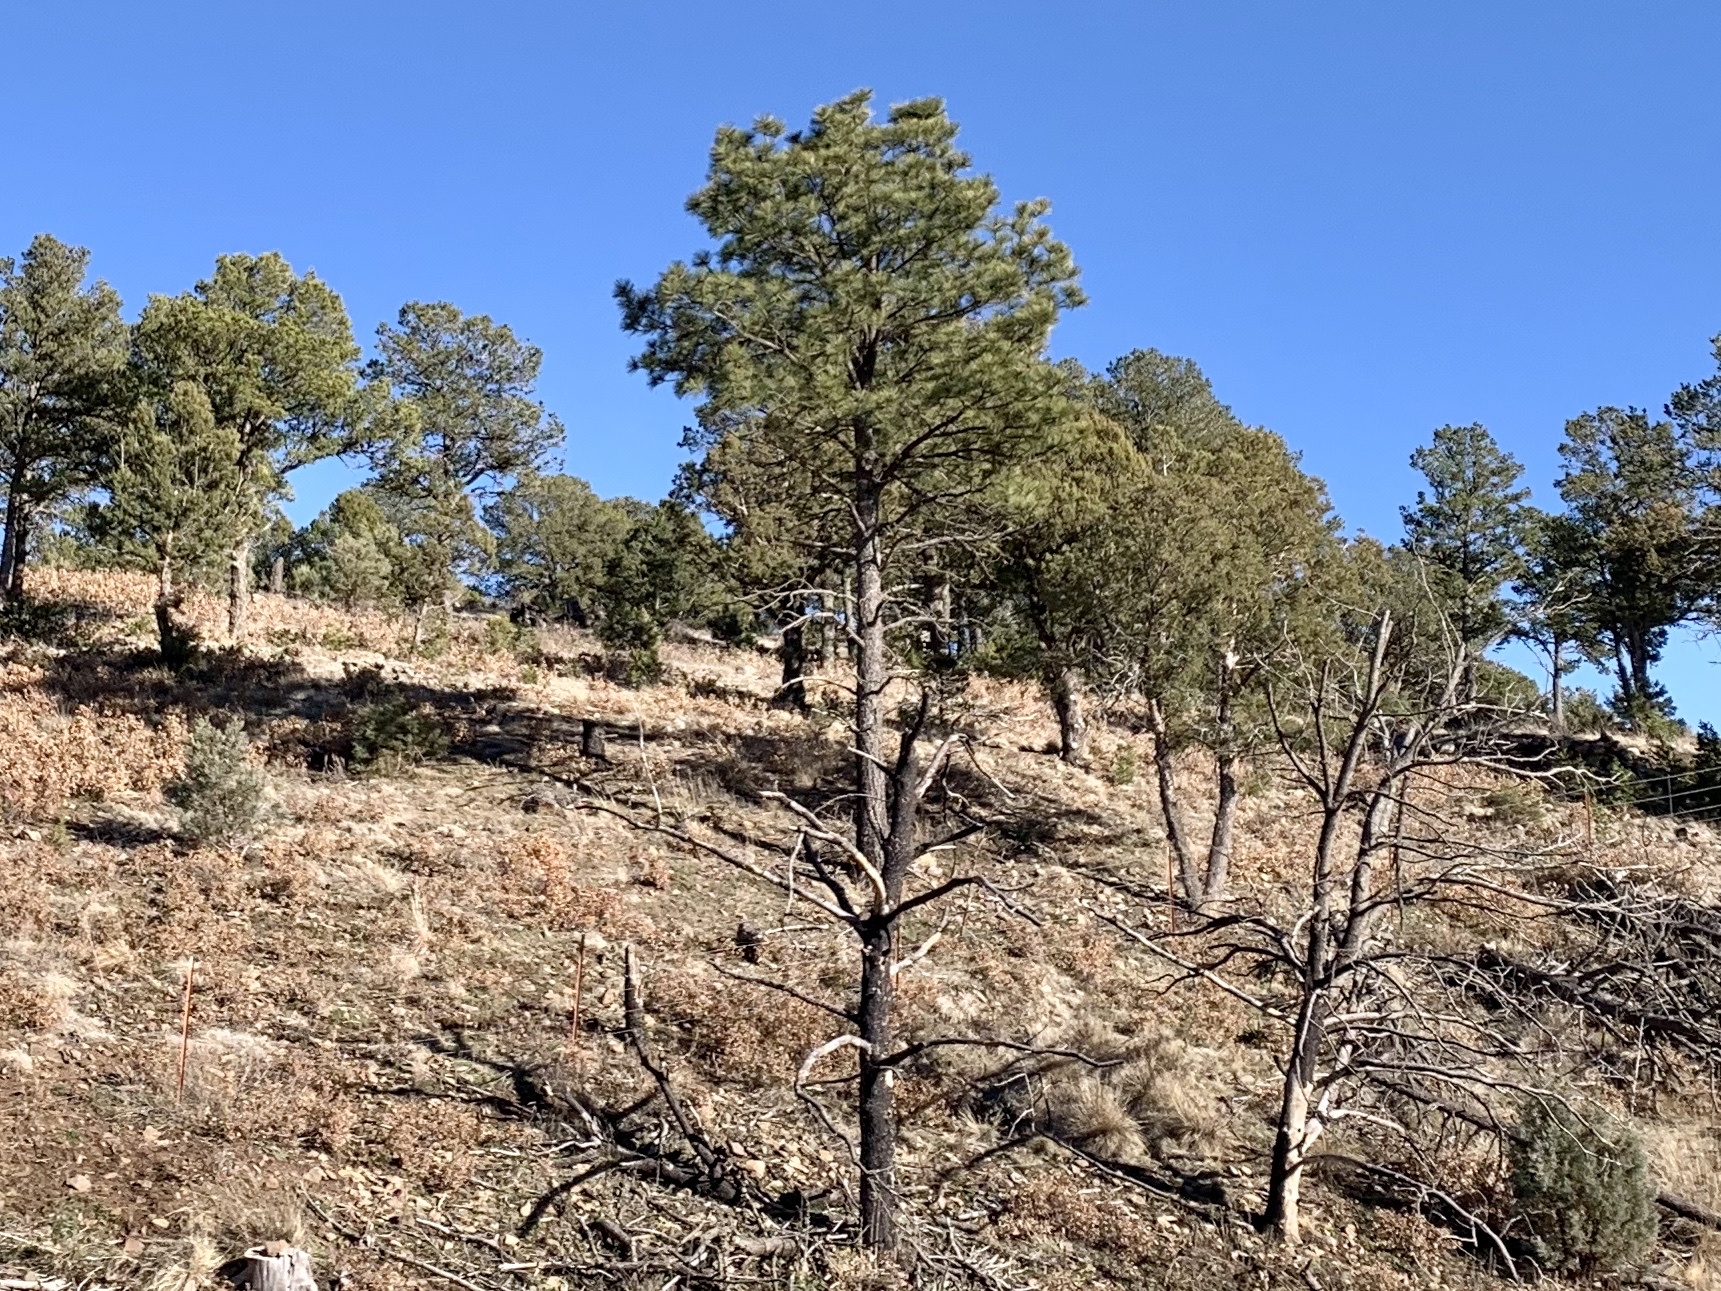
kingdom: Plantae
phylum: Tracheophyta
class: Pinopsida
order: Pinales
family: Pinaceae
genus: Pinus
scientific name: Pinus ponderosa
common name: Western yellow-pine
